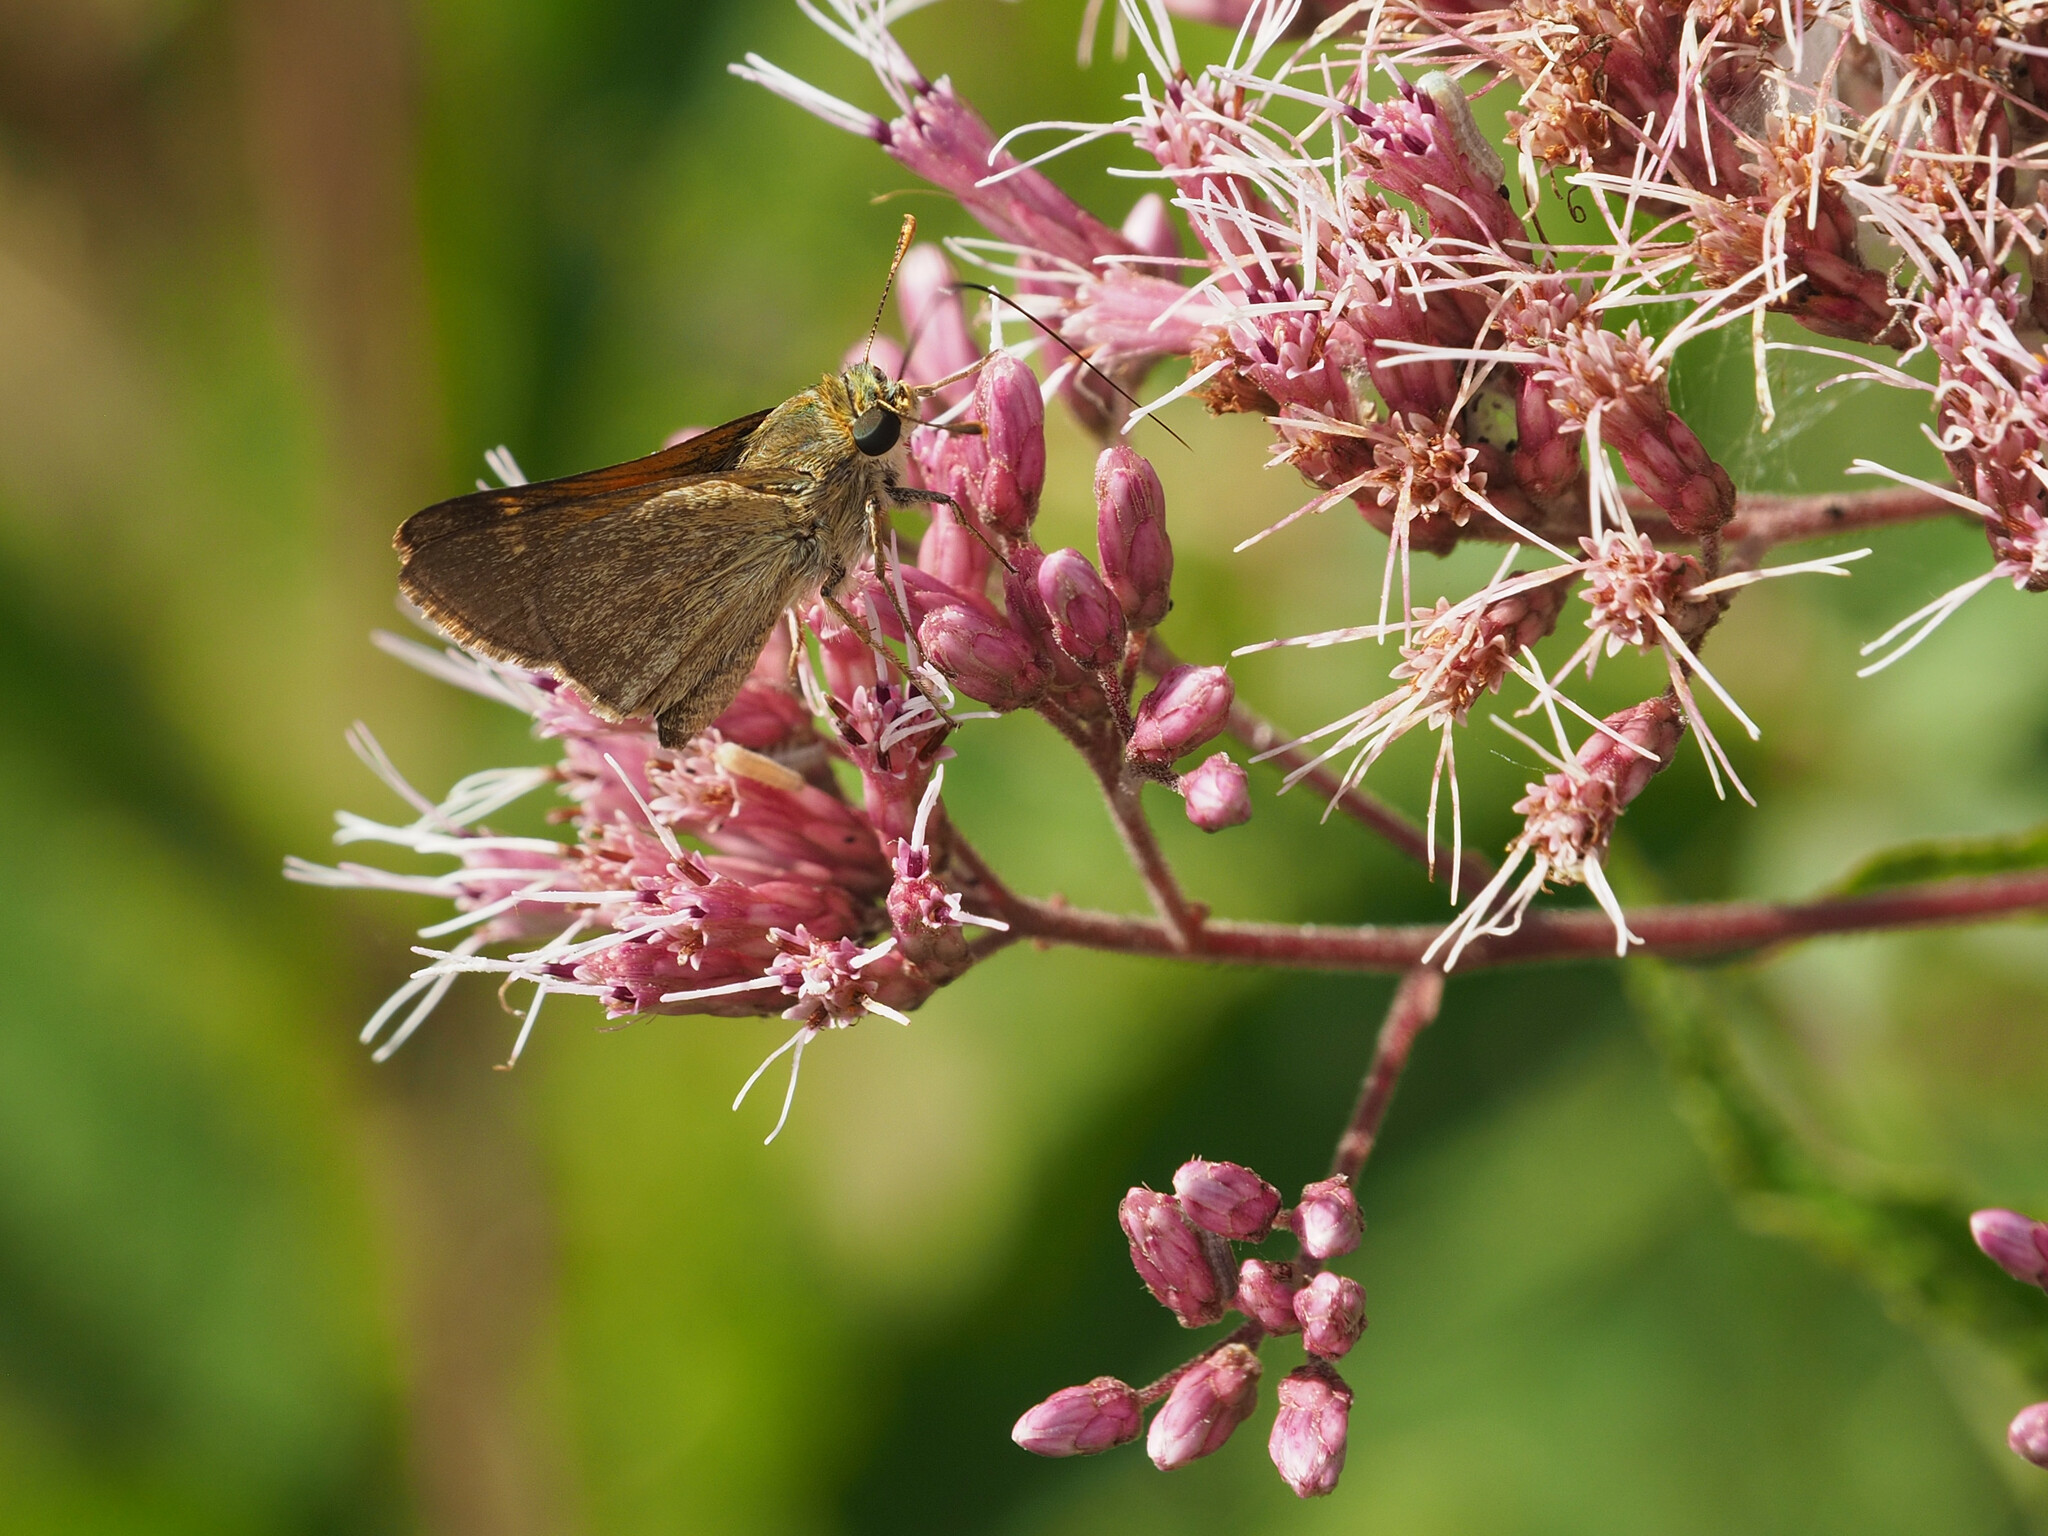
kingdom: Animalia
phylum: Arthropoda
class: Insecta
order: Lepidoptera
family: Hesperiidae
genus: Polites
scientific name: Polites themistocles
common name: Tawny-edged skipper
